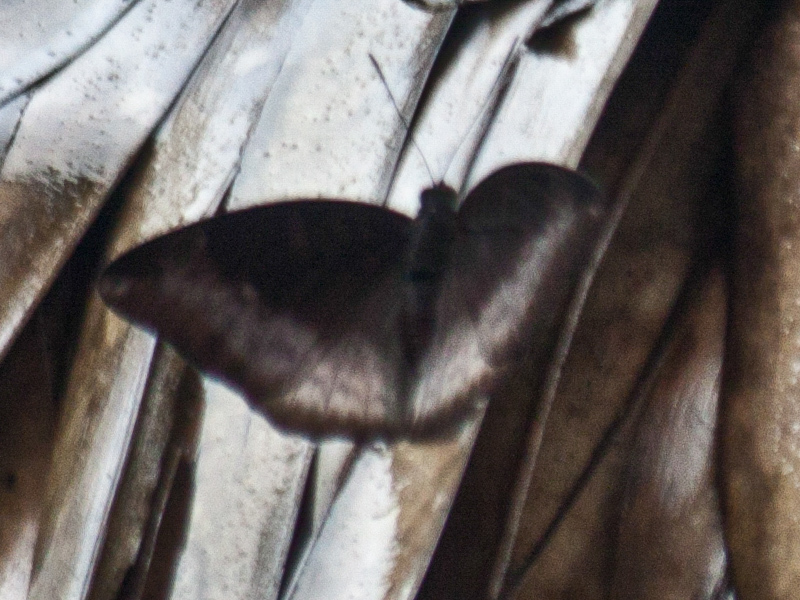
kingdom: Animalia
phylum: Arthropoda
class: Insecta
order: Lepidoptera
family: Nymphalidae
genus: Euthalia
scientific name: Euthalia monina
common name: Powdered baron
